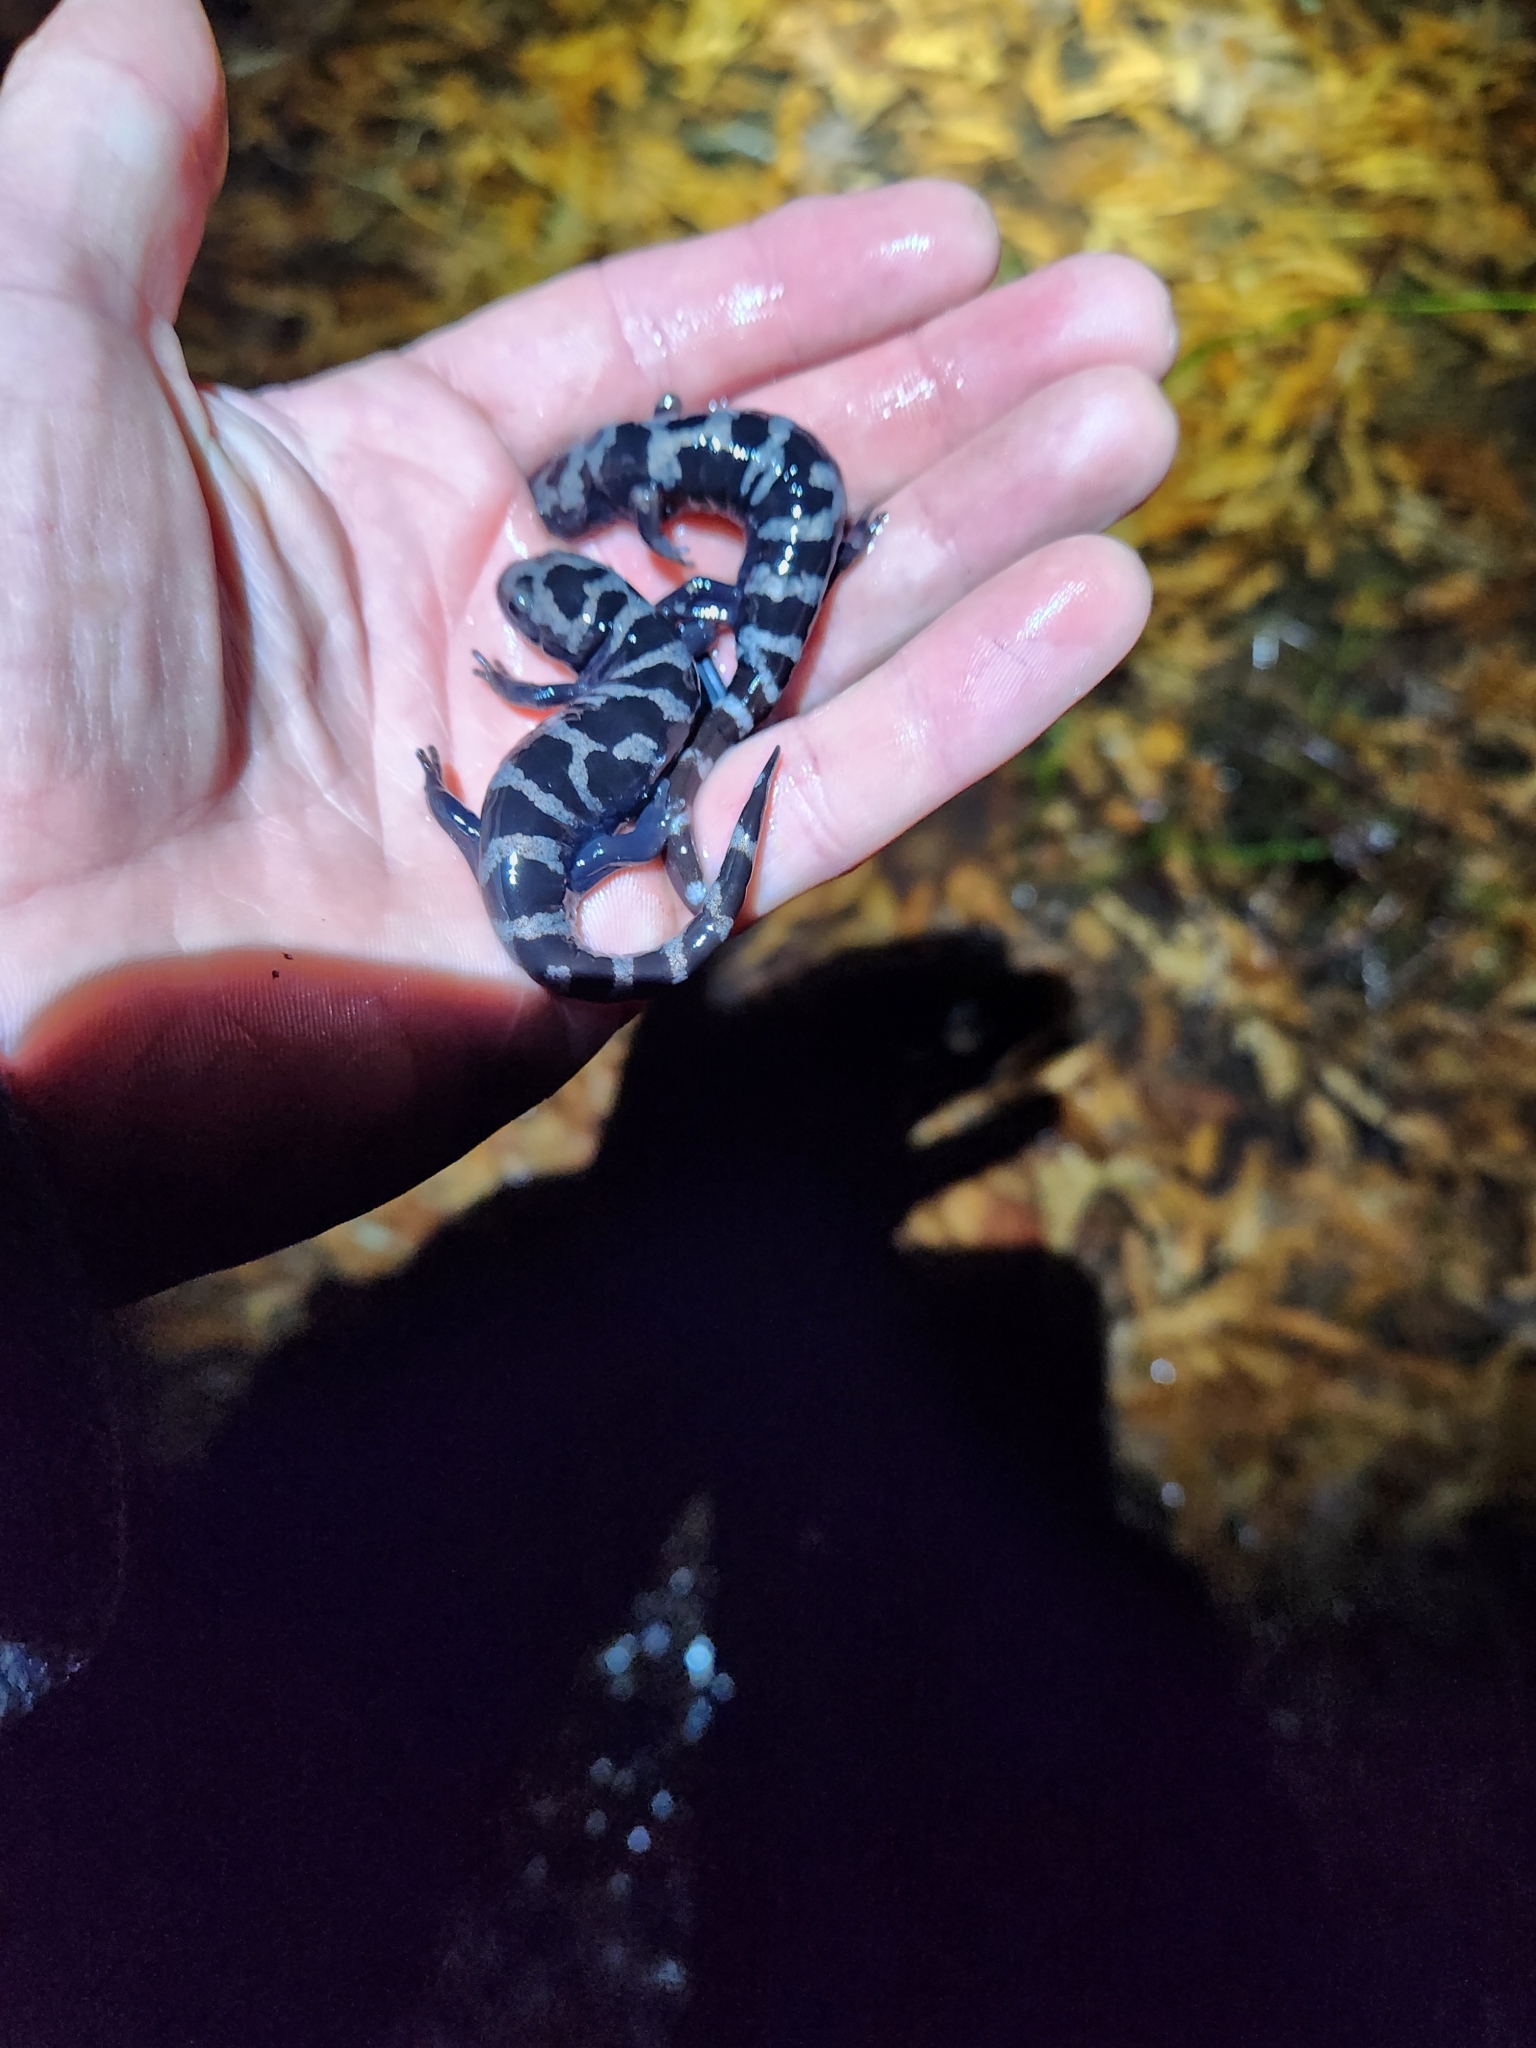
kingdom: Animalia
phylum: Chordata
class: Amphibia
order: Caudata
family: Ambystomatidae
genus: Ambystoma
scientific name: Ambystoma opacum
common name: Marbled salamander
